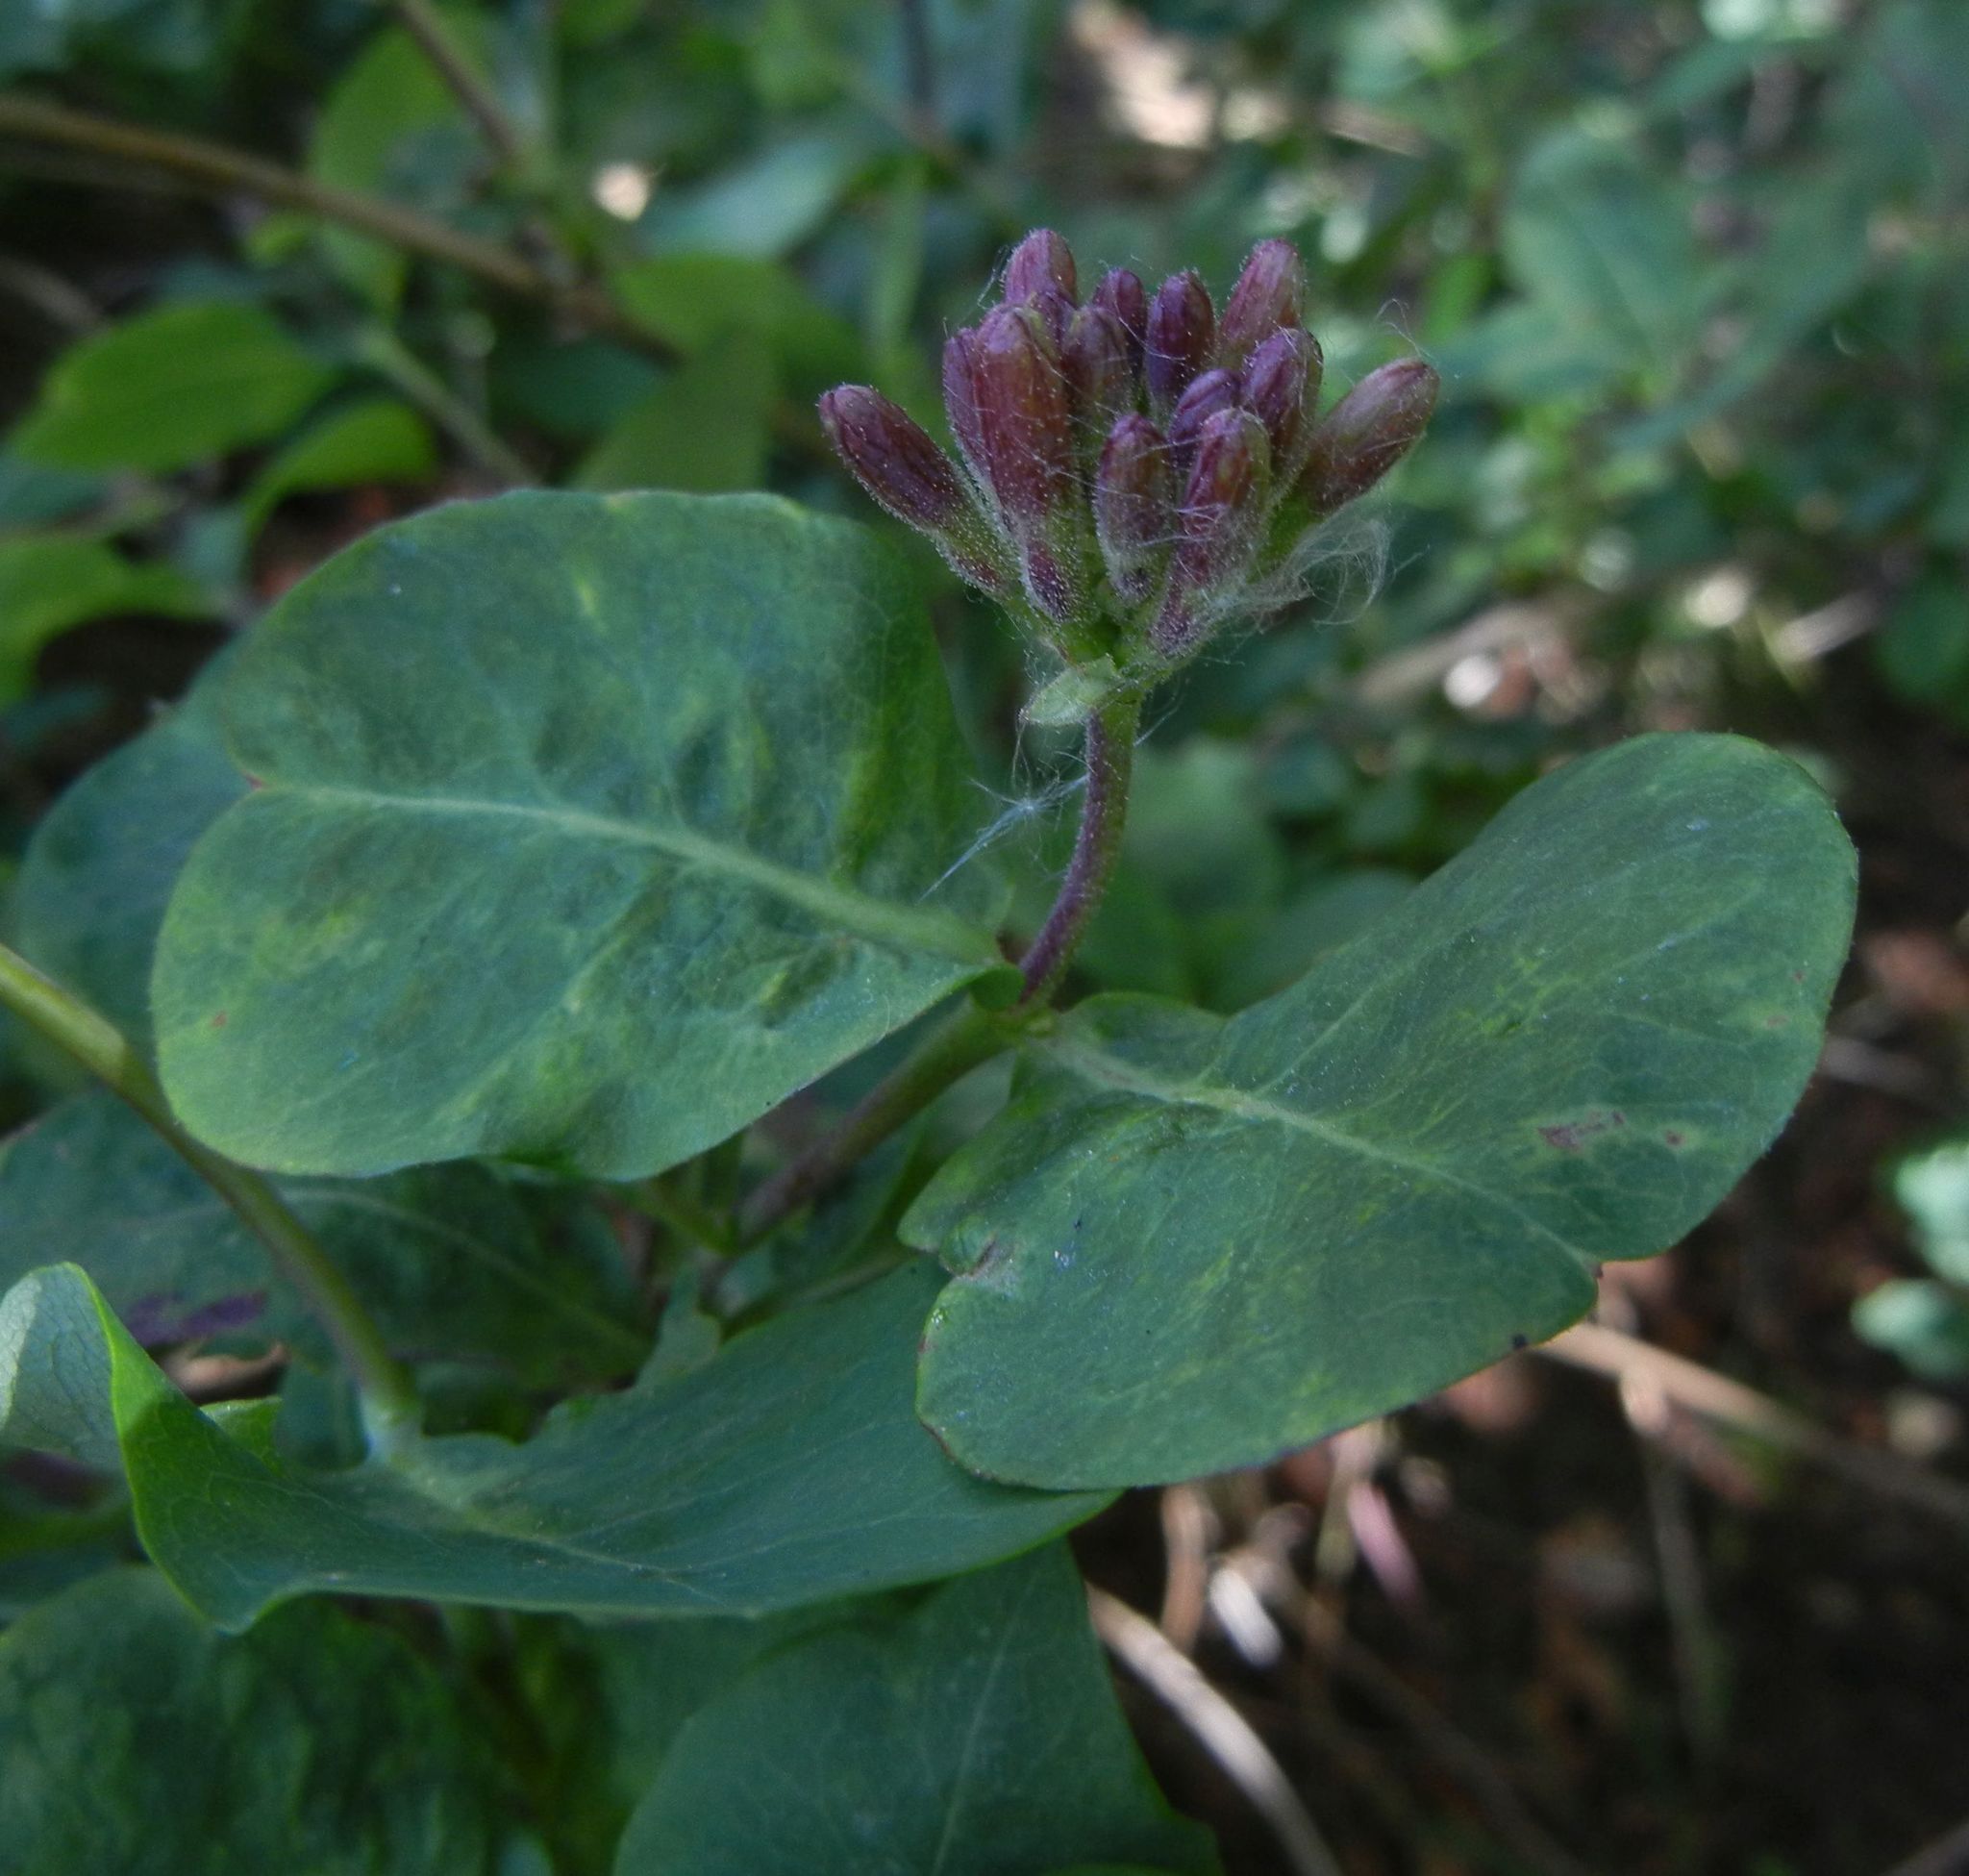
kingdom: Plantae
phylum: Tracheophyta
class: Magnoliopsida
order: Dipsacales
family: Caprifoliaceae
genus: Lonicera
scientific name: Lonicera periclymenum
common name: European honeysuckle
